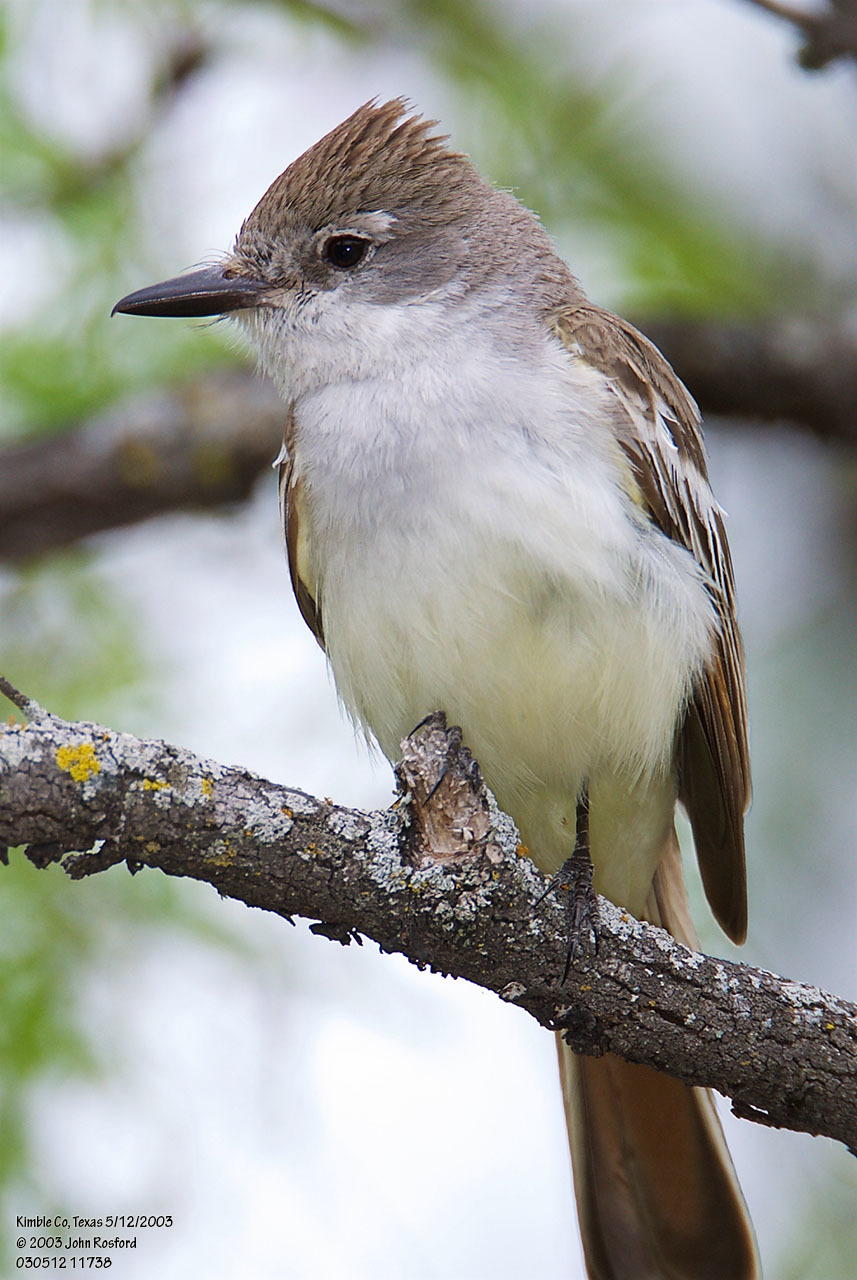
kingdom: Animalia
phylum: Chordata
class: Aves
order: Passeriformes
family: Tyrannidae
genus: Myiarchus
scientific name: Myiarchus cinerascens
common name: Ash-throated flycatcher
